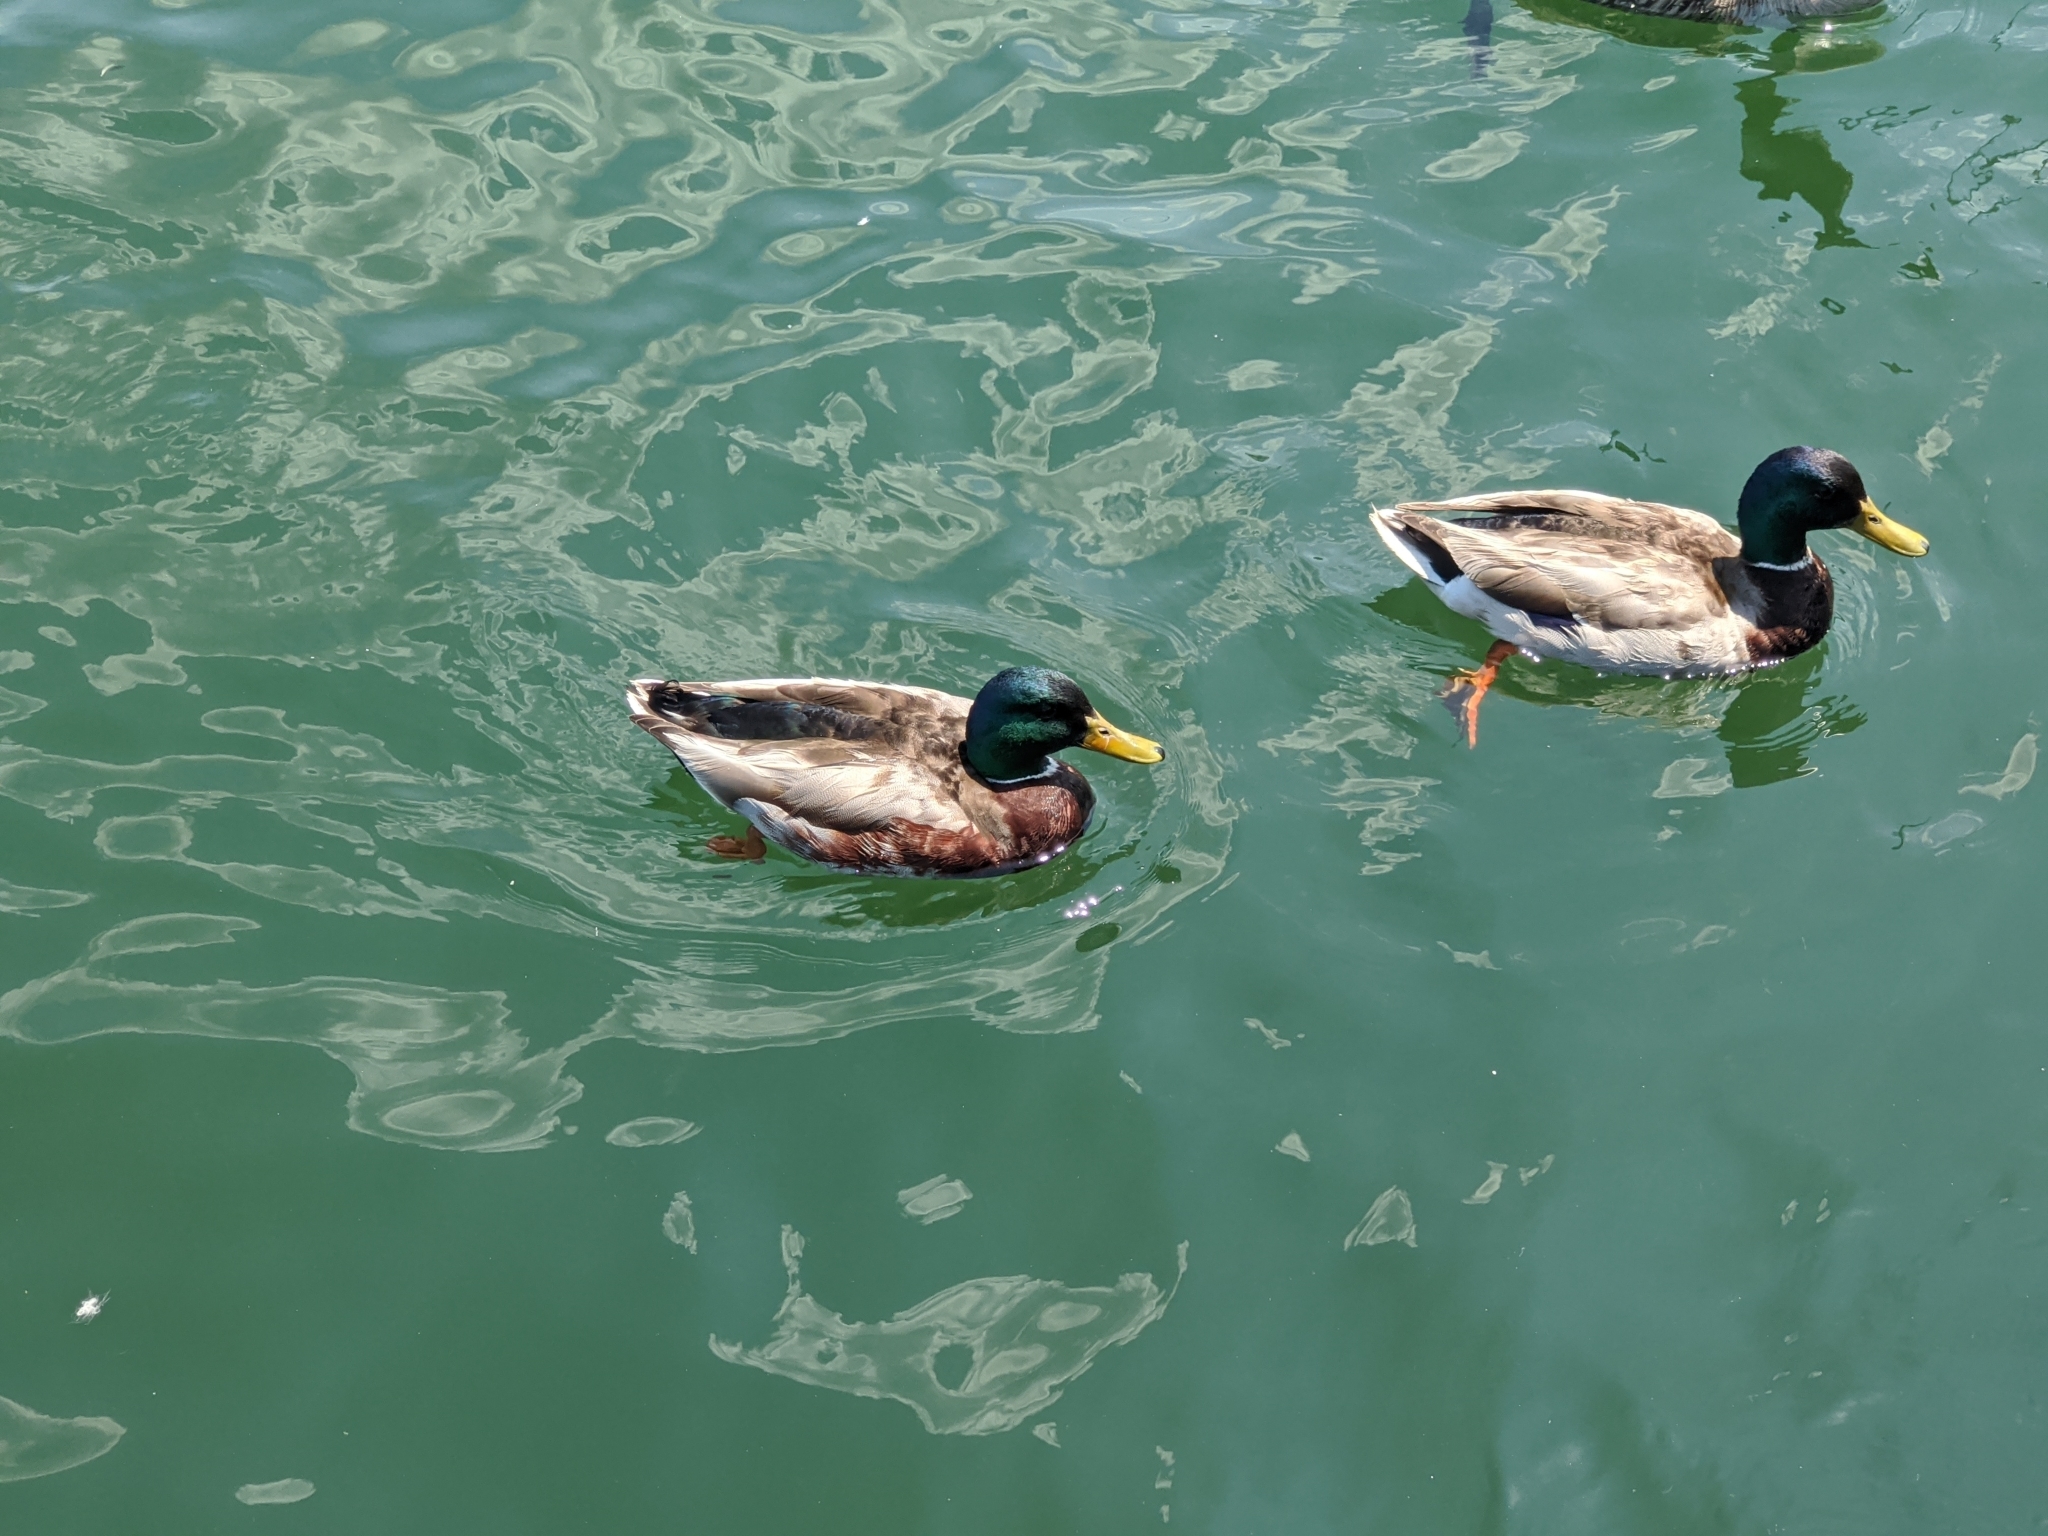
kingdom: Animalia
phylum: Chordata
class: Aves
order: Anseriformes
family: Anatidae
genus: Anas
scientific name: Anas platyrhynchos
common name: Mallard
